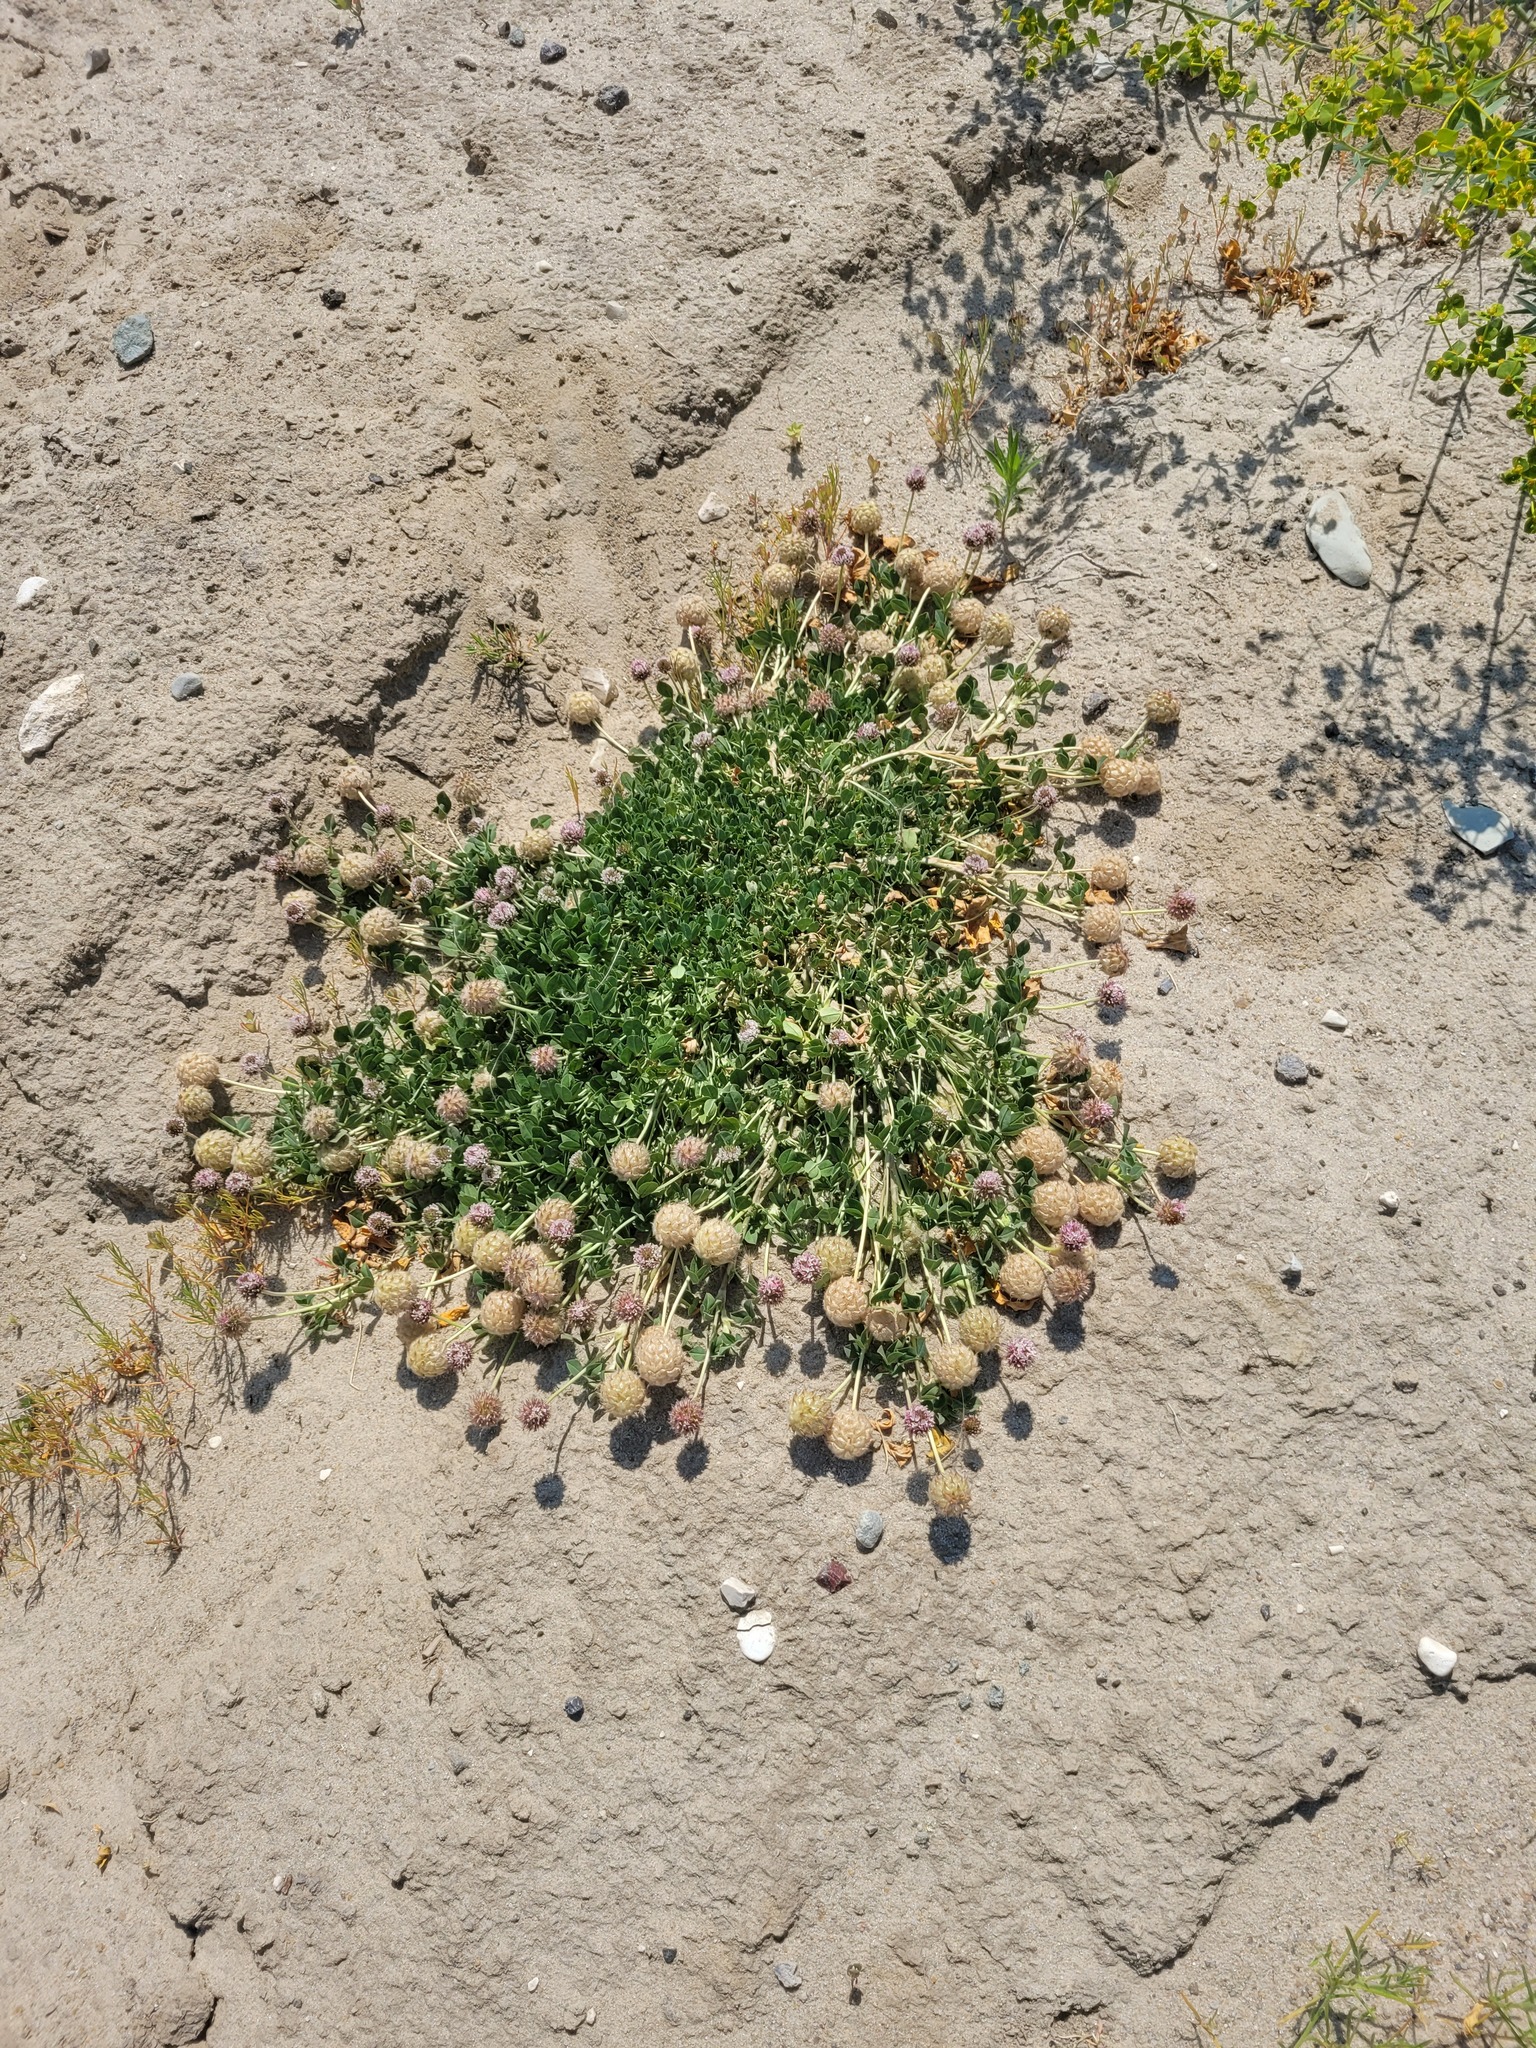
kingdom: Plantae
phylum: Tracheophyta
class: Magnoliopsida
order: Fabales
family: Fabaceae
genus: Trifolium
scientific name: Trifolium fragiferum
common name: Strawberry clover
